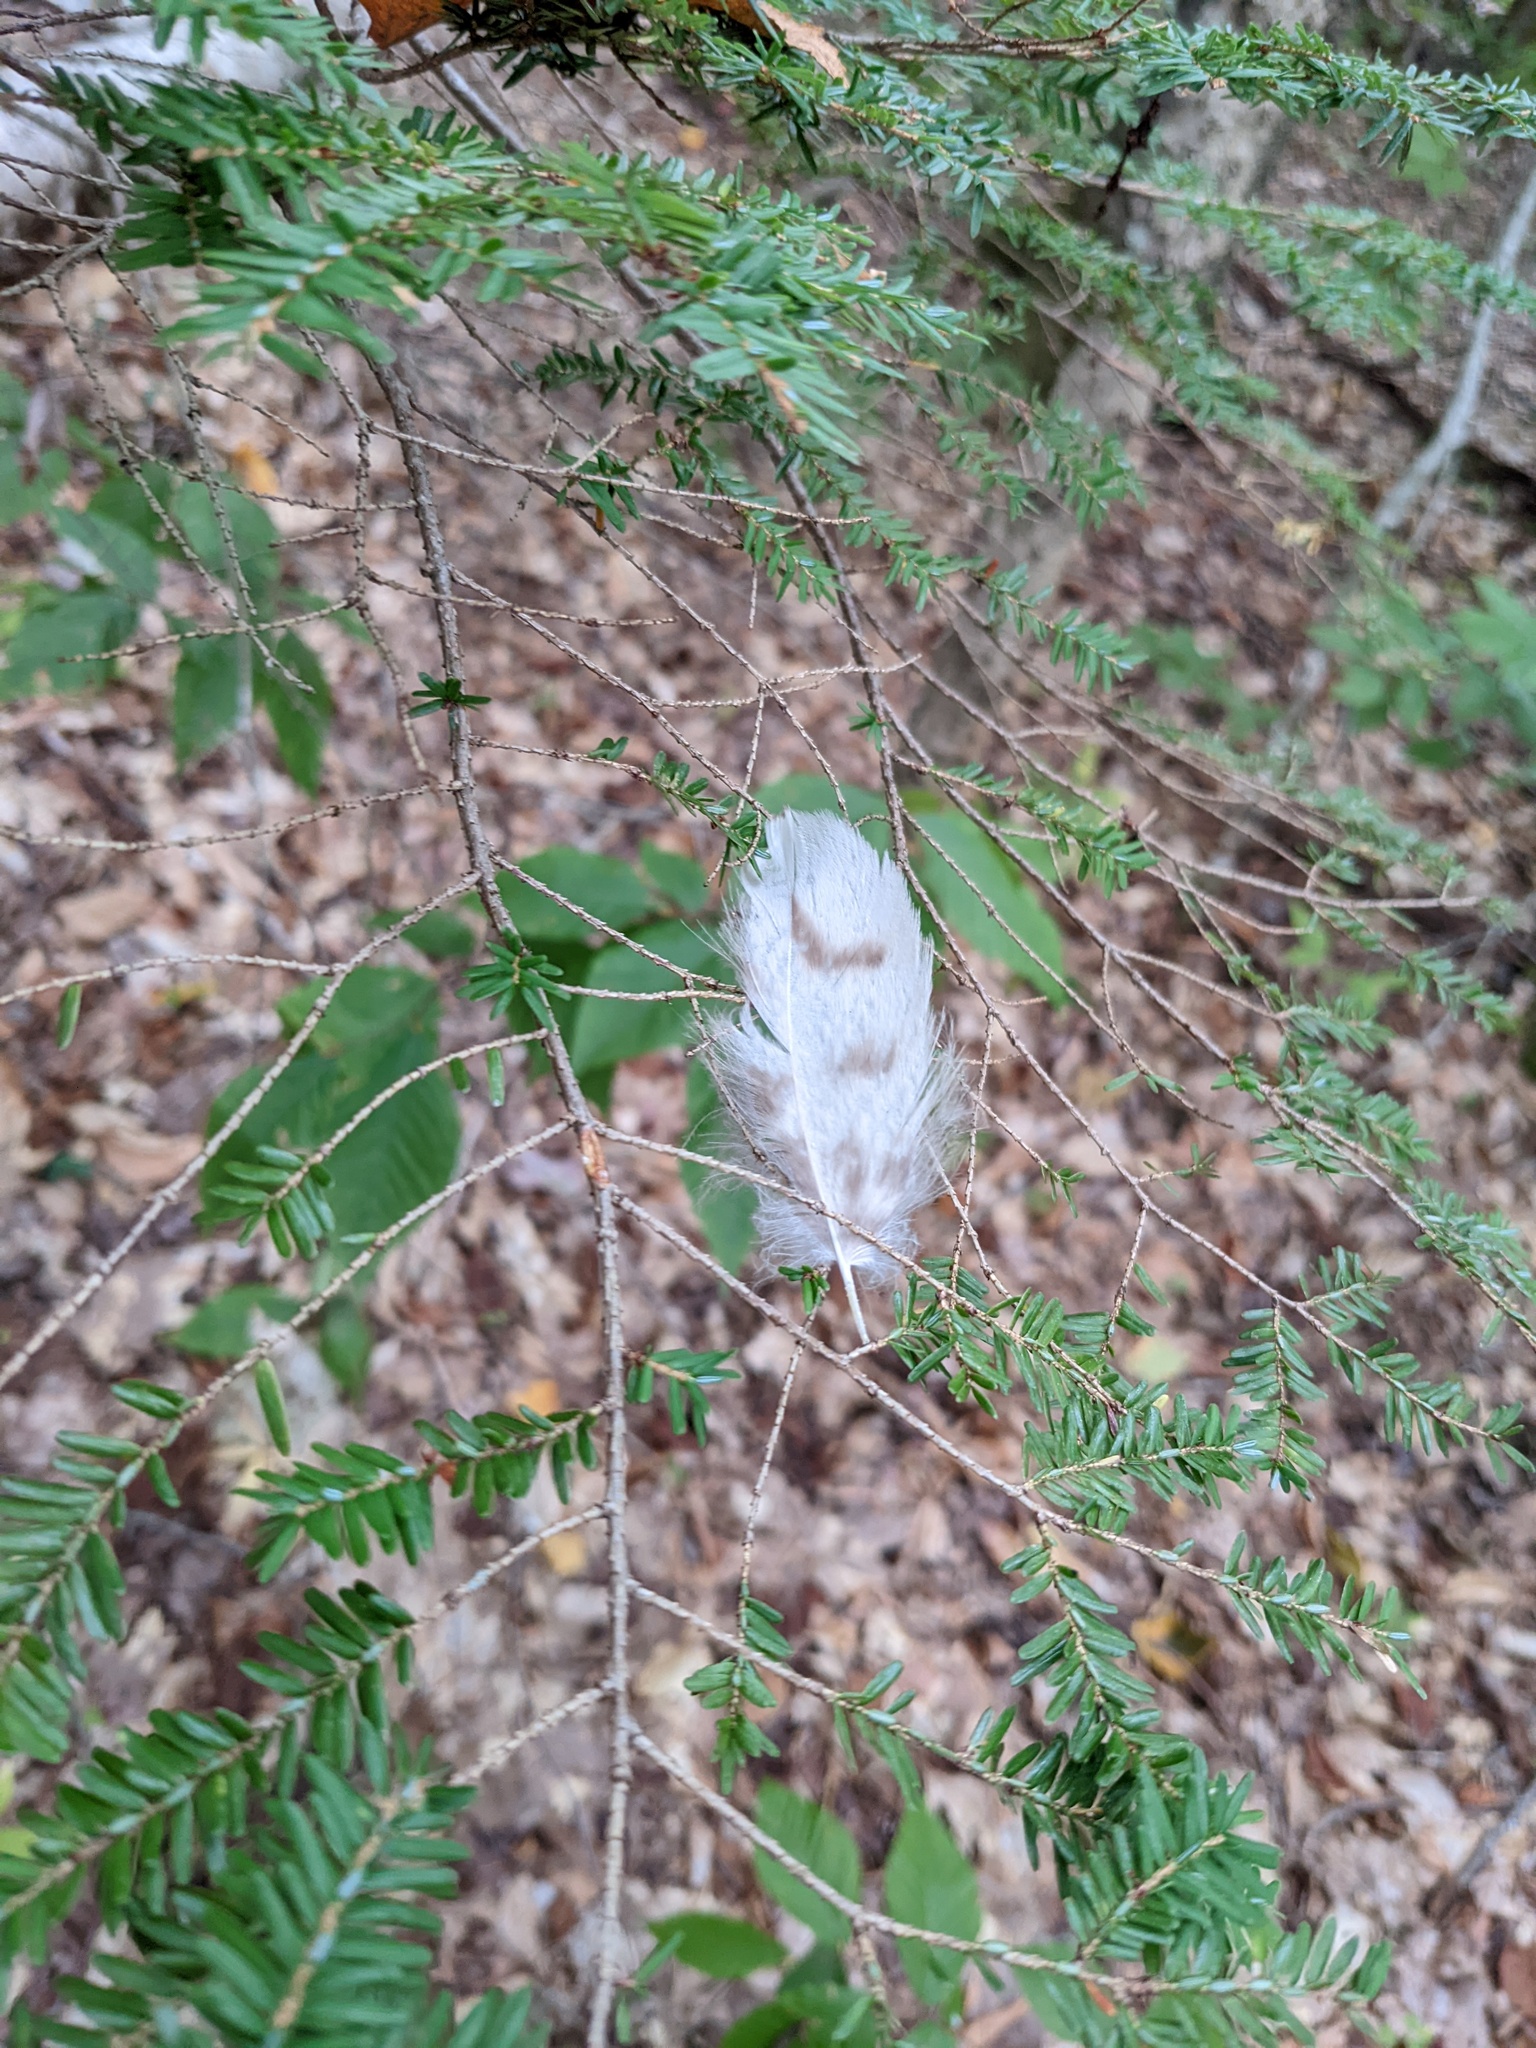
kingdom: Animalia
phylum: Chordata
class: Aves
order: Strigiformes
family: Strigidae
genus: Strix
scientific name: Strix varia
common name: Barred owl
